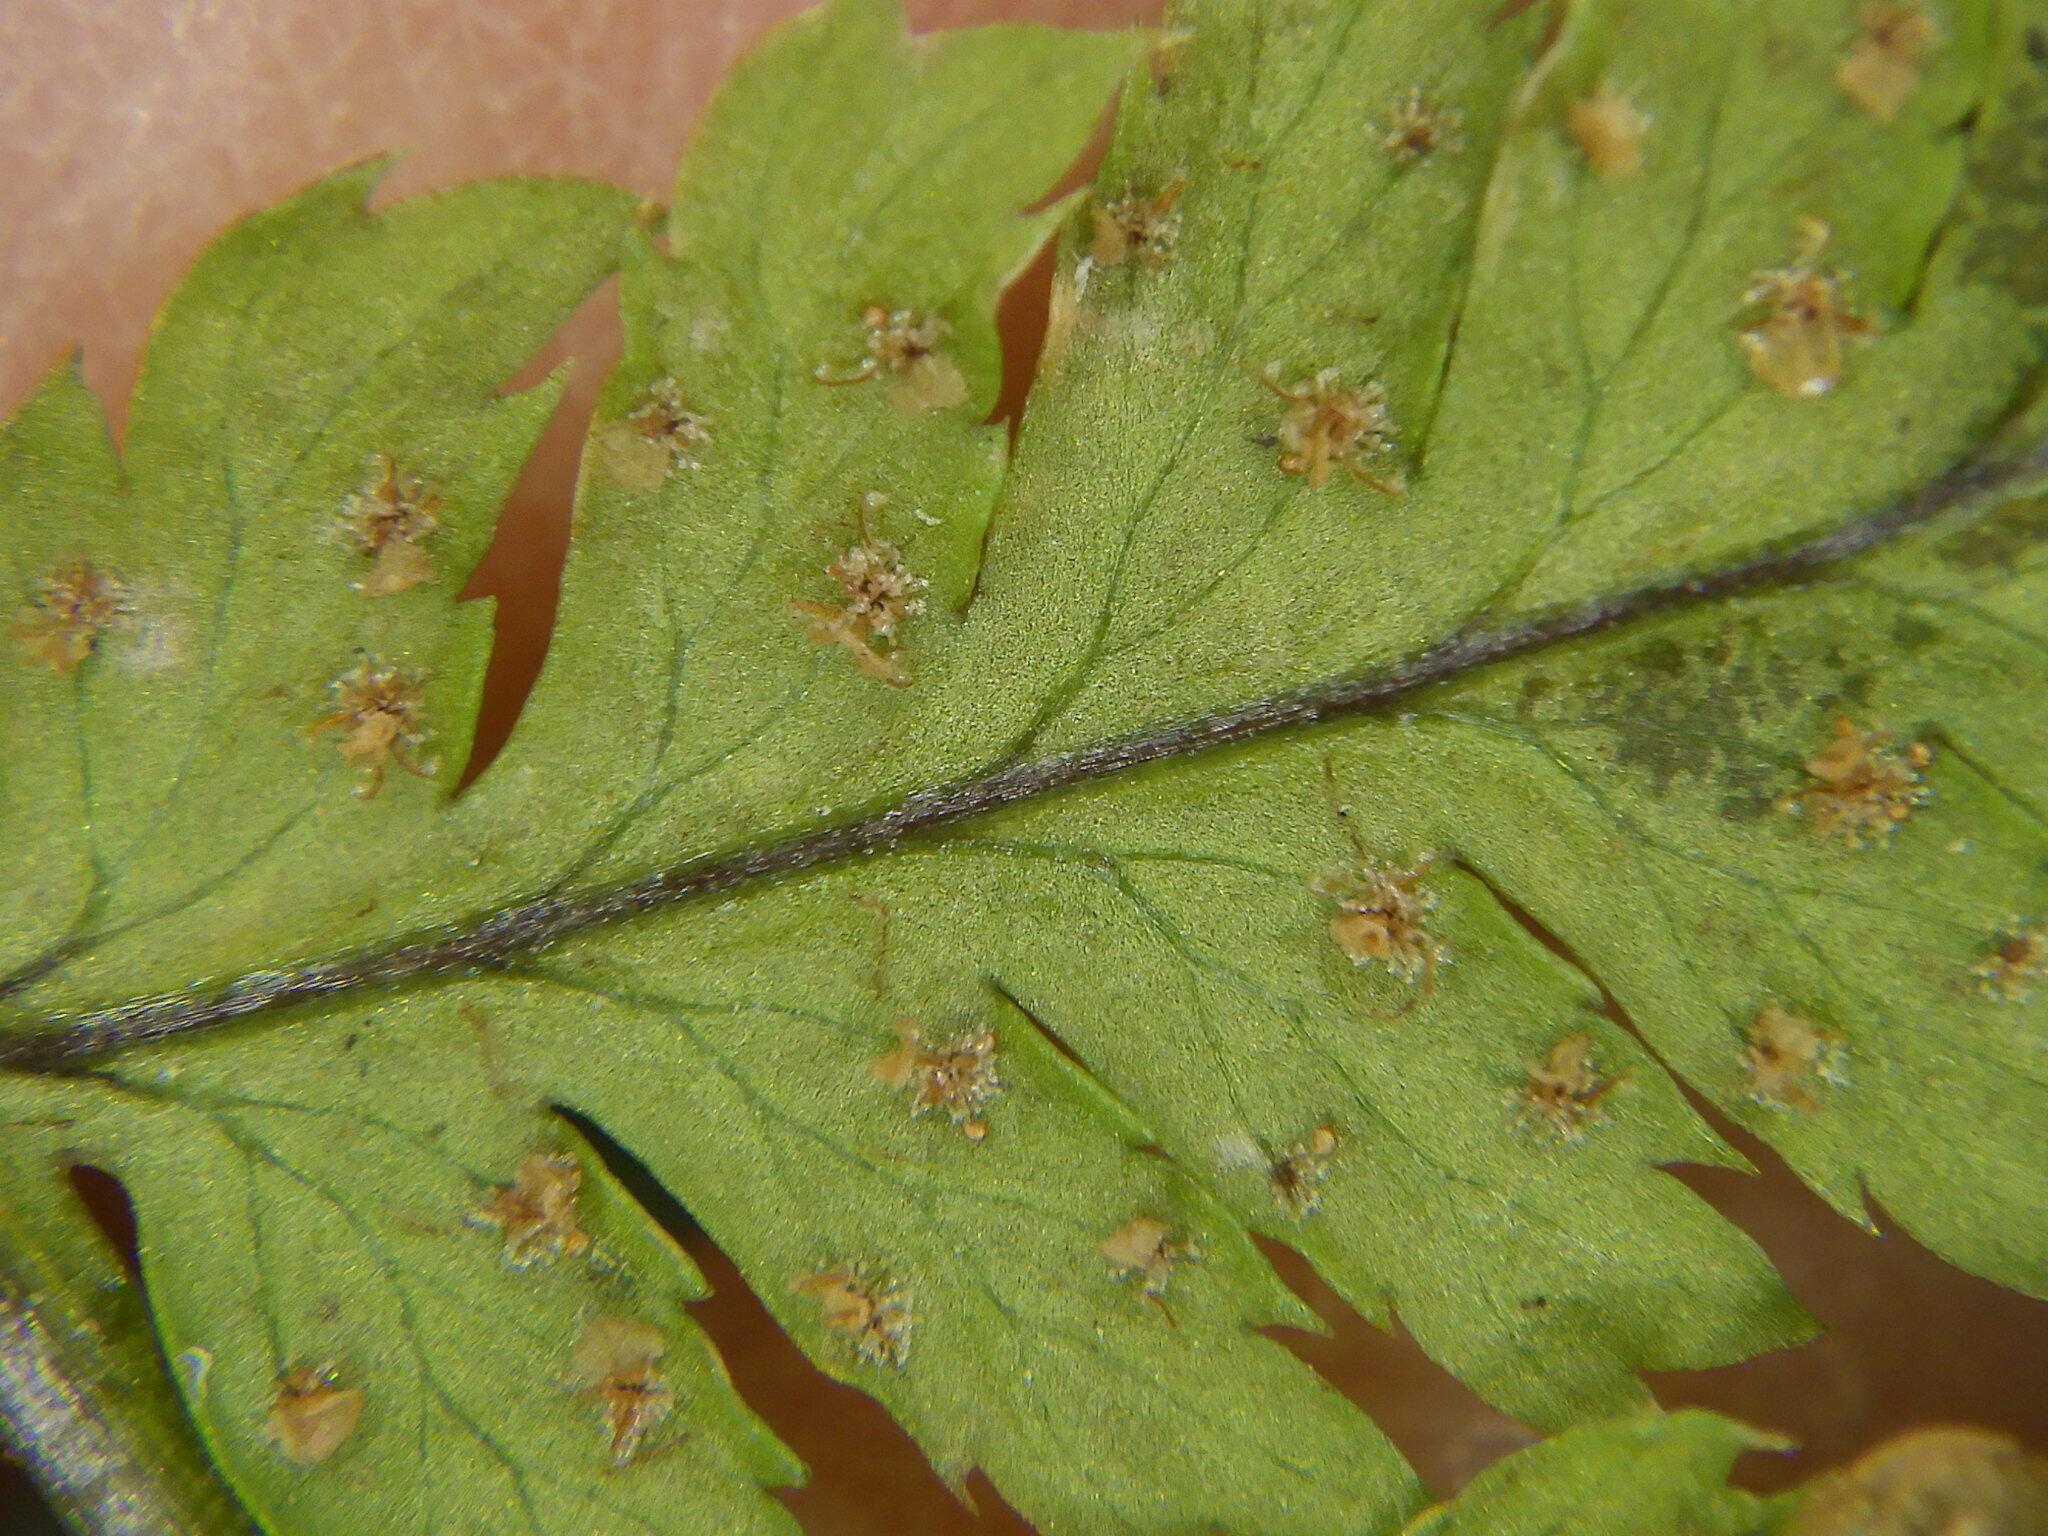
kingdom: Plantae
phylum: Tracheophyta
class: Polypodiopsida
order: Polypodiales
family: Dryopteridaceae
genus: Dryopteris
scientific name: Dryopteris carthusiana
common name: Narrow buckler-fern
